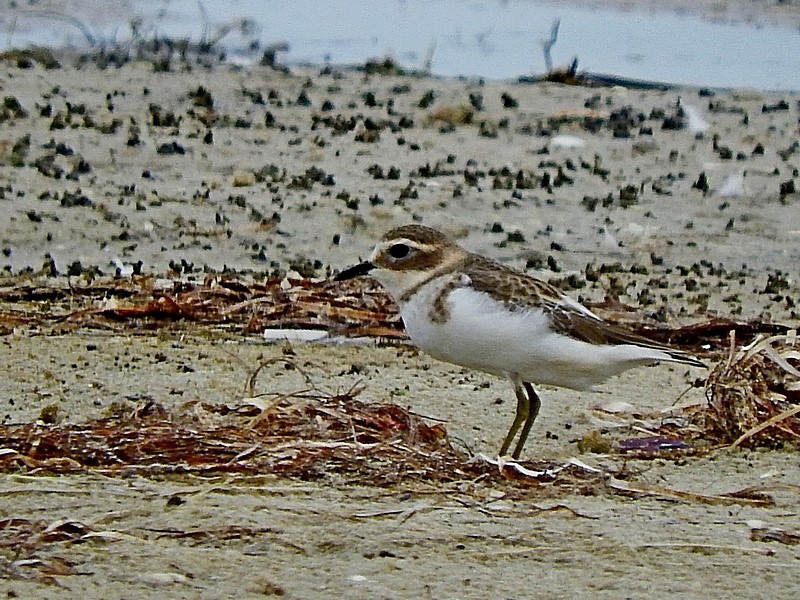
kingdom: Animalia
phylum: Chordata
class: Aves
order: Charadriiformes
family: Charadriidae
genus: Anarhynchus
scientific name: Anarhynchus
